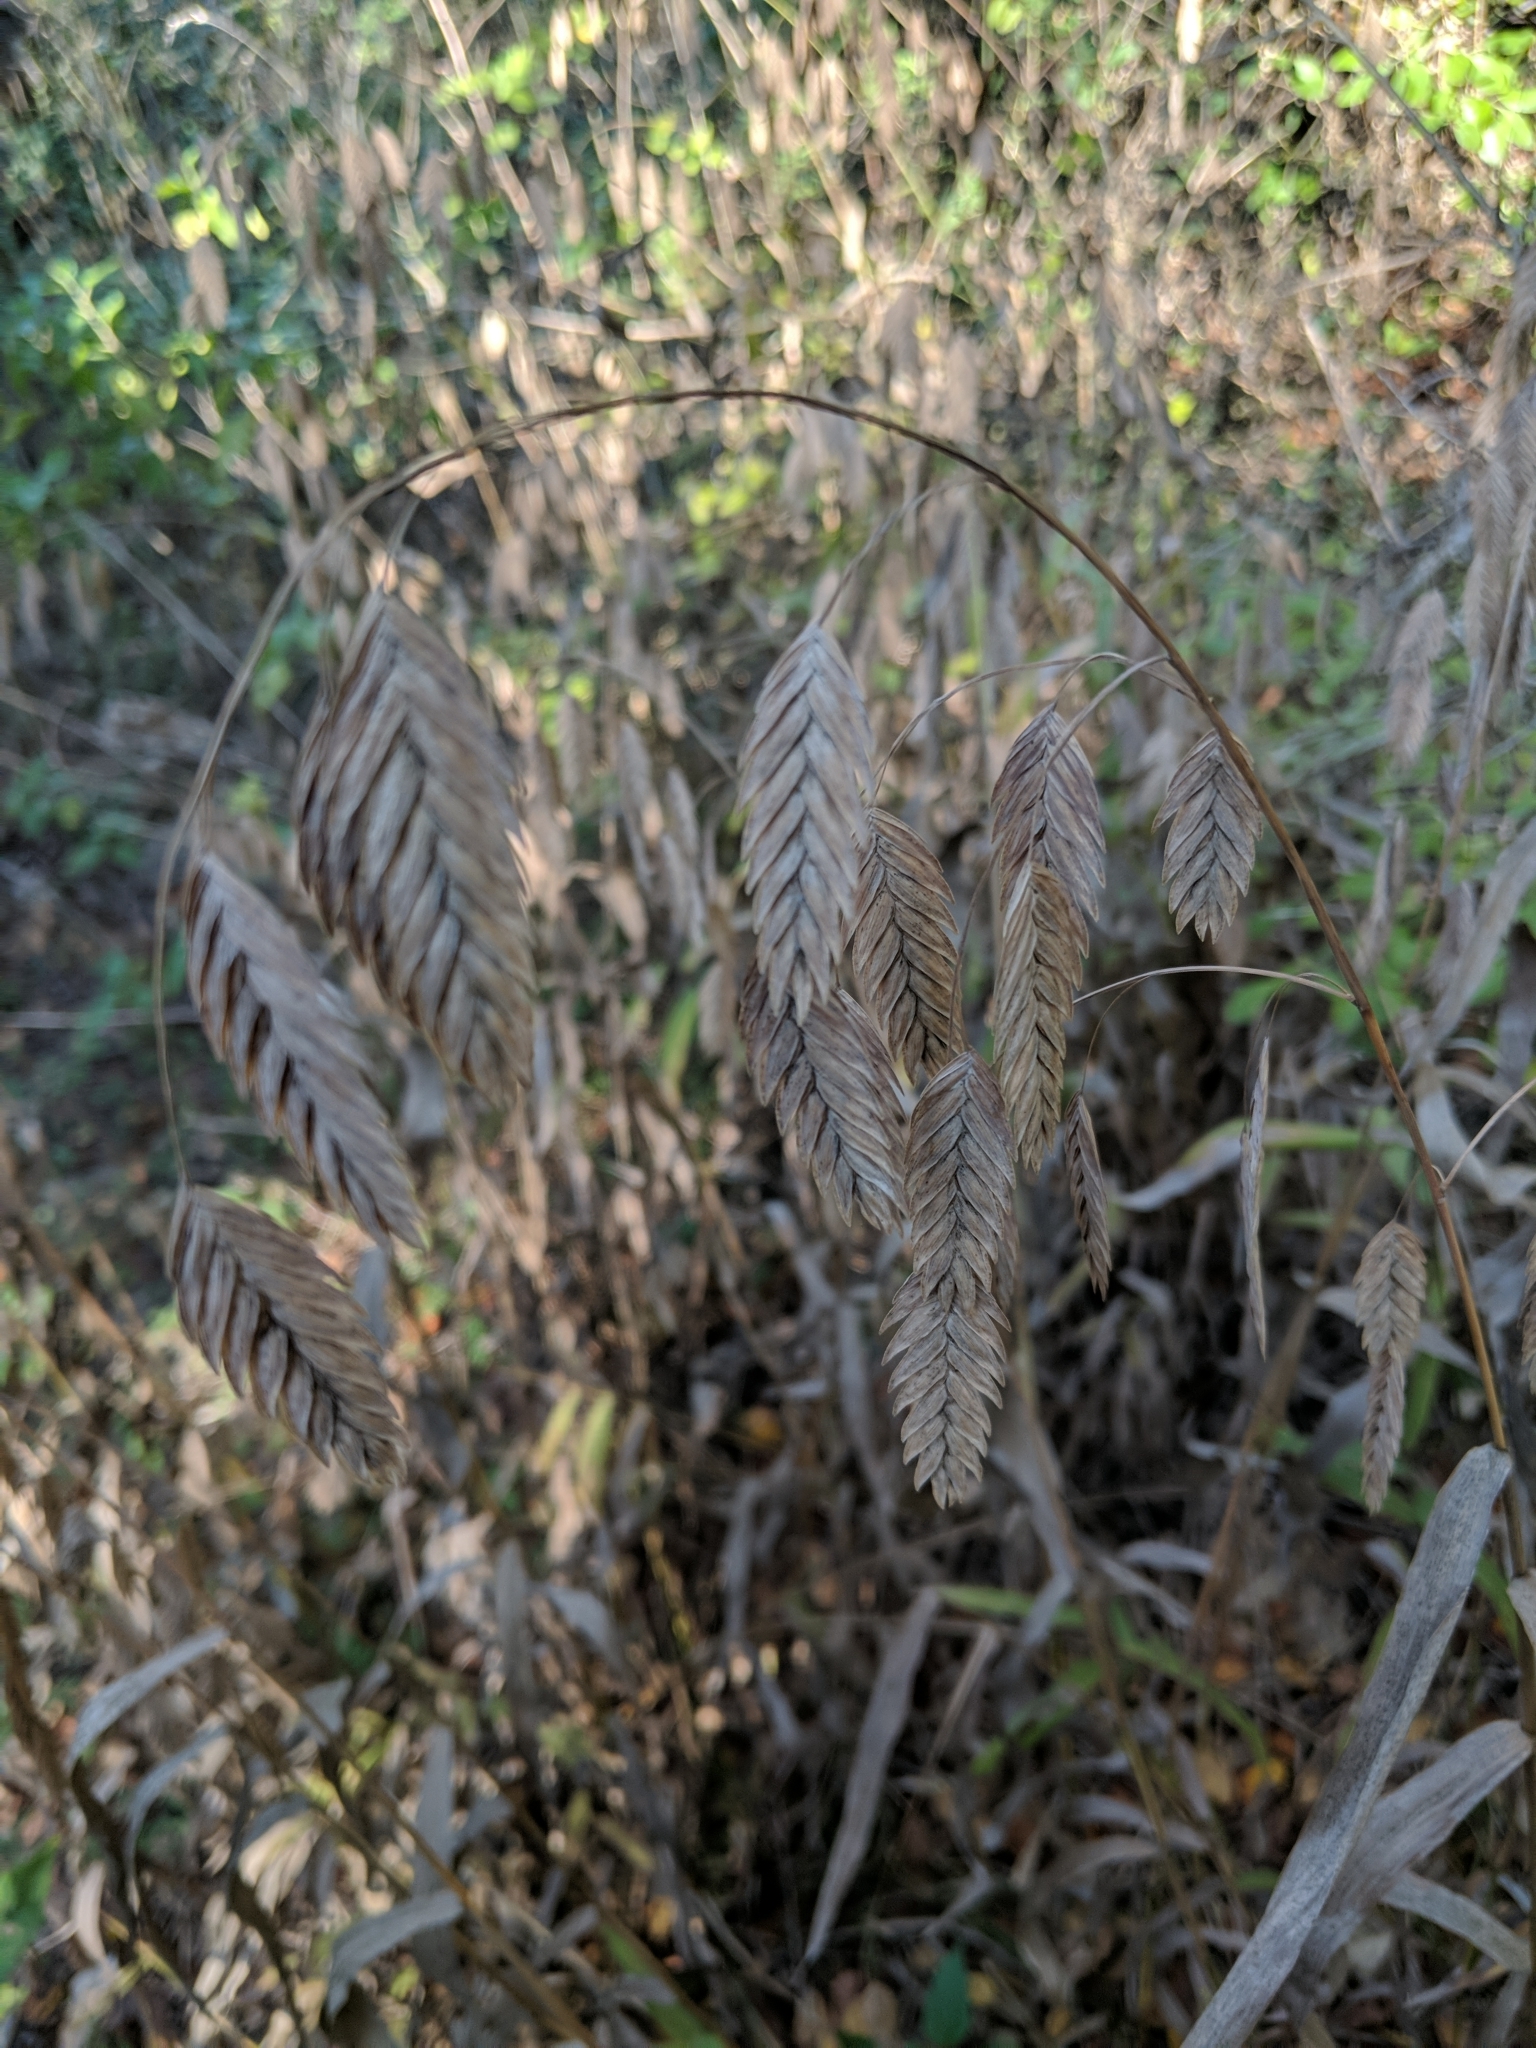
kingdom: Plantae
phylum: Tracheophyta
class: Liliopsida
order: Poales
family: Poaceae
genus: Chasmanthium
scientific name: Chasmanthium latifolium
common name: Broad-leaved chasmanthium
